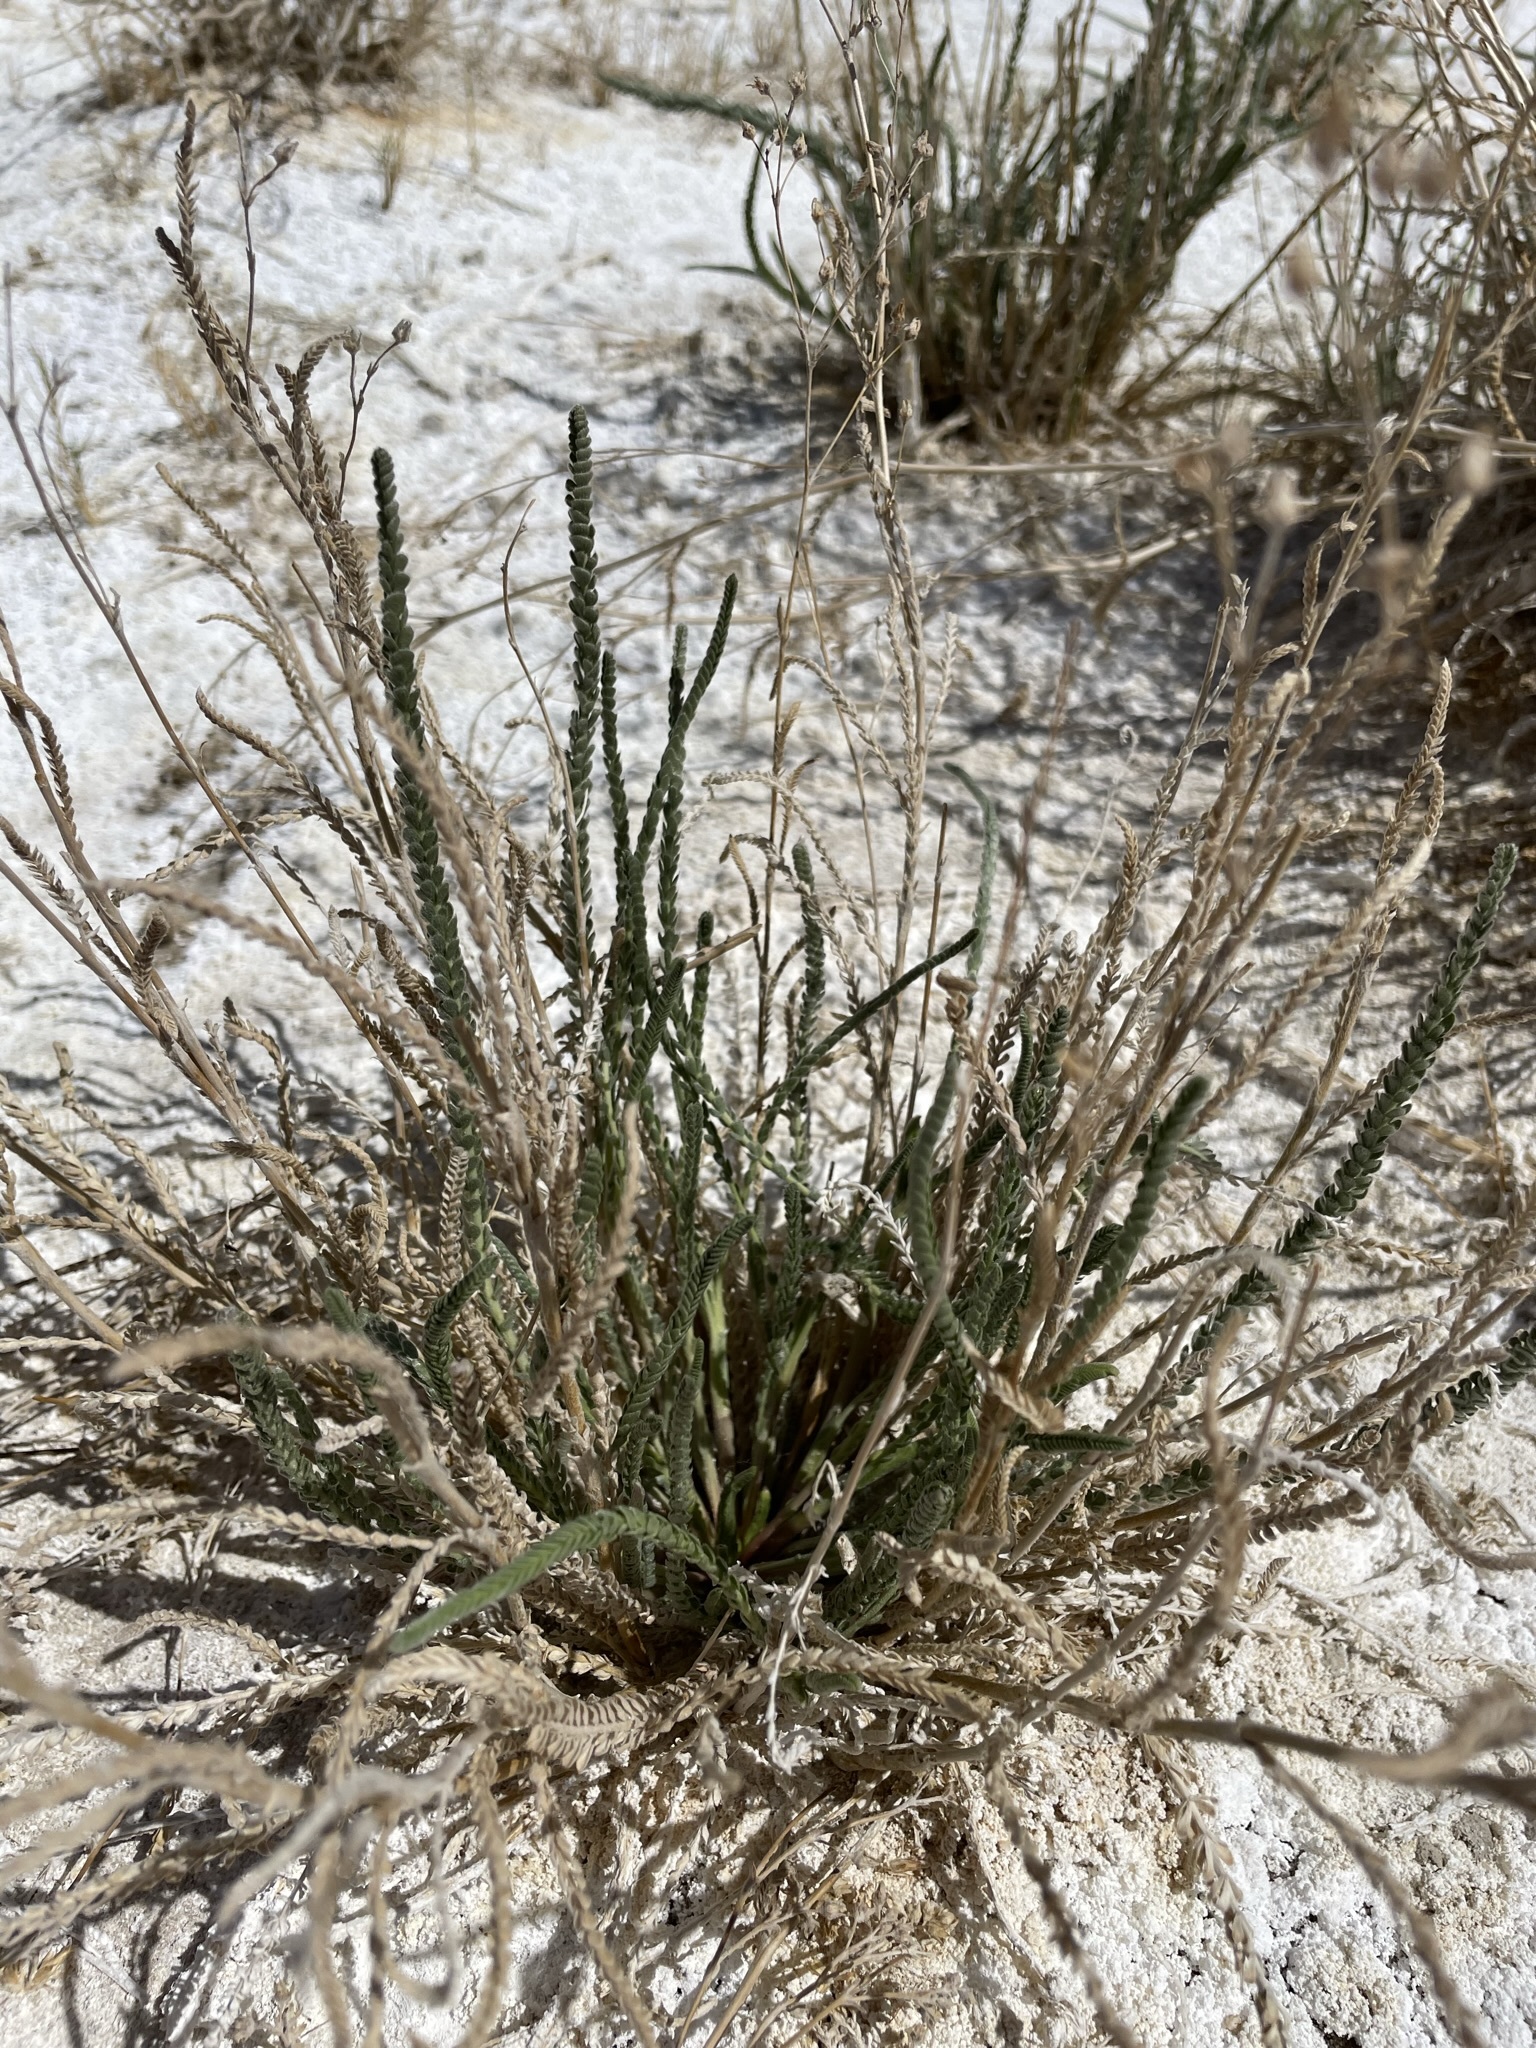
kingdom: Plantae
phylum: Tracheophyta
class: Magnoliopsida
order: Rosales
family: Rosaceae
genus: Potentilla
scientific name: Potentilla kingii
